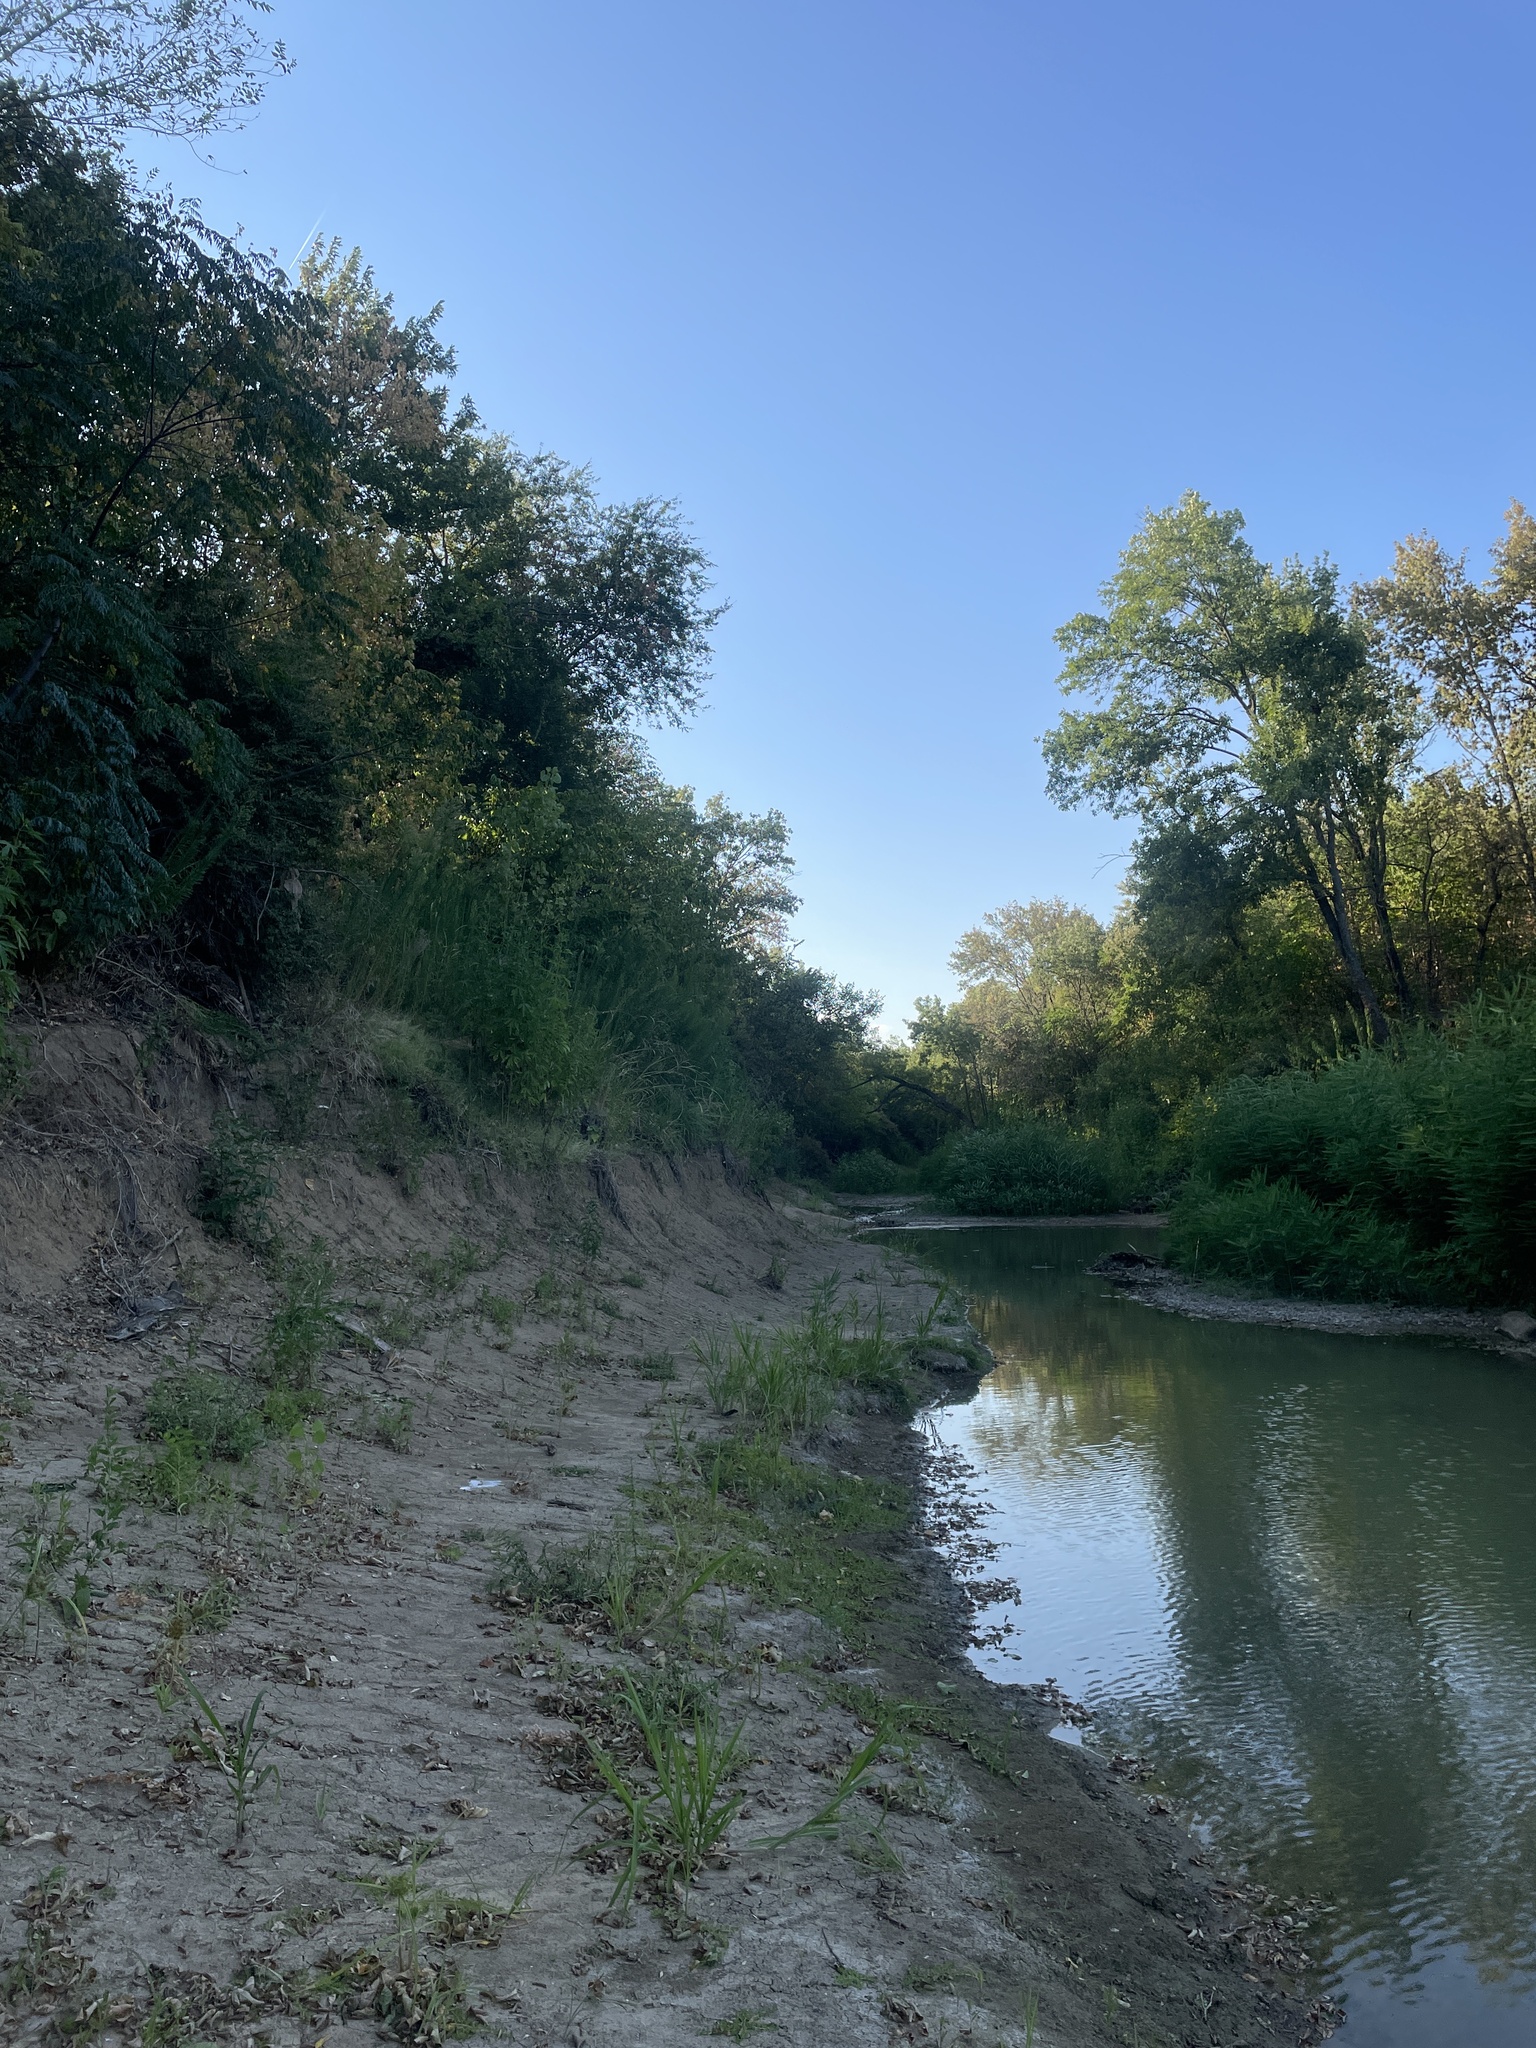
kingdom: Animalia
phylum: Chordata
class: Aves
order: Accipitriformes
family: Accipitridae
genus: Accipiter
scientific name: Accipiter cooperii
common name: Cooper's hawk
